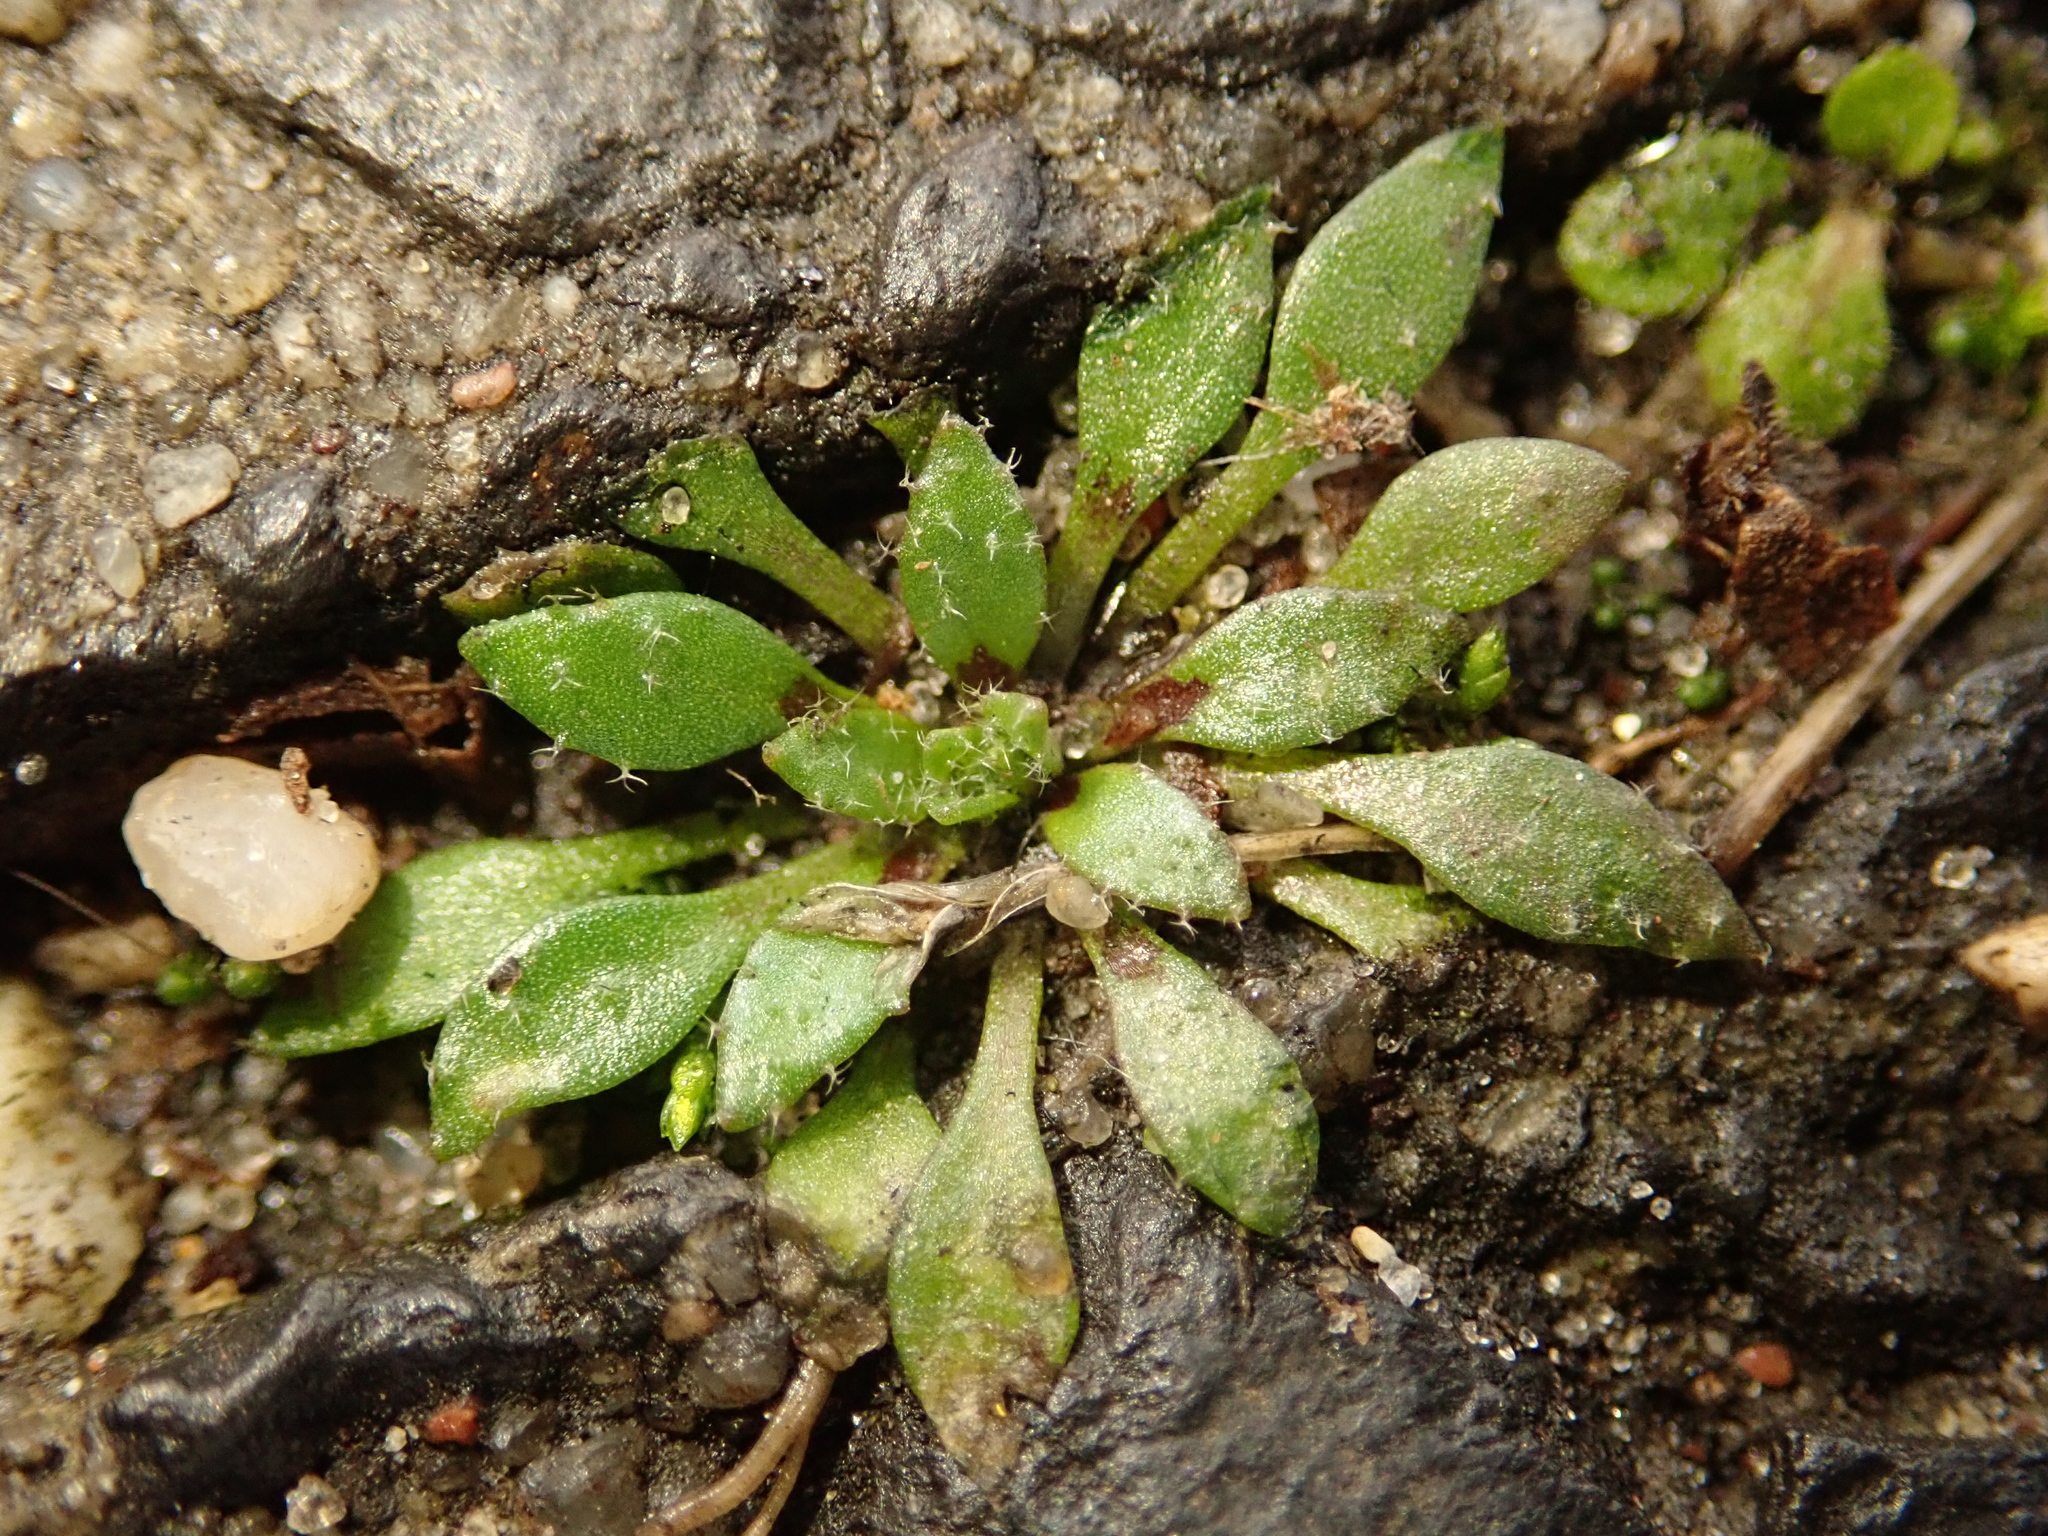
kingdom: Plantae
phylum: Tracheophyta
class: Magnoliopsida
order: Brassicales
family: Brassicaceae
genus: Draba
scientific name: Draba verna
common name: Spring draba
